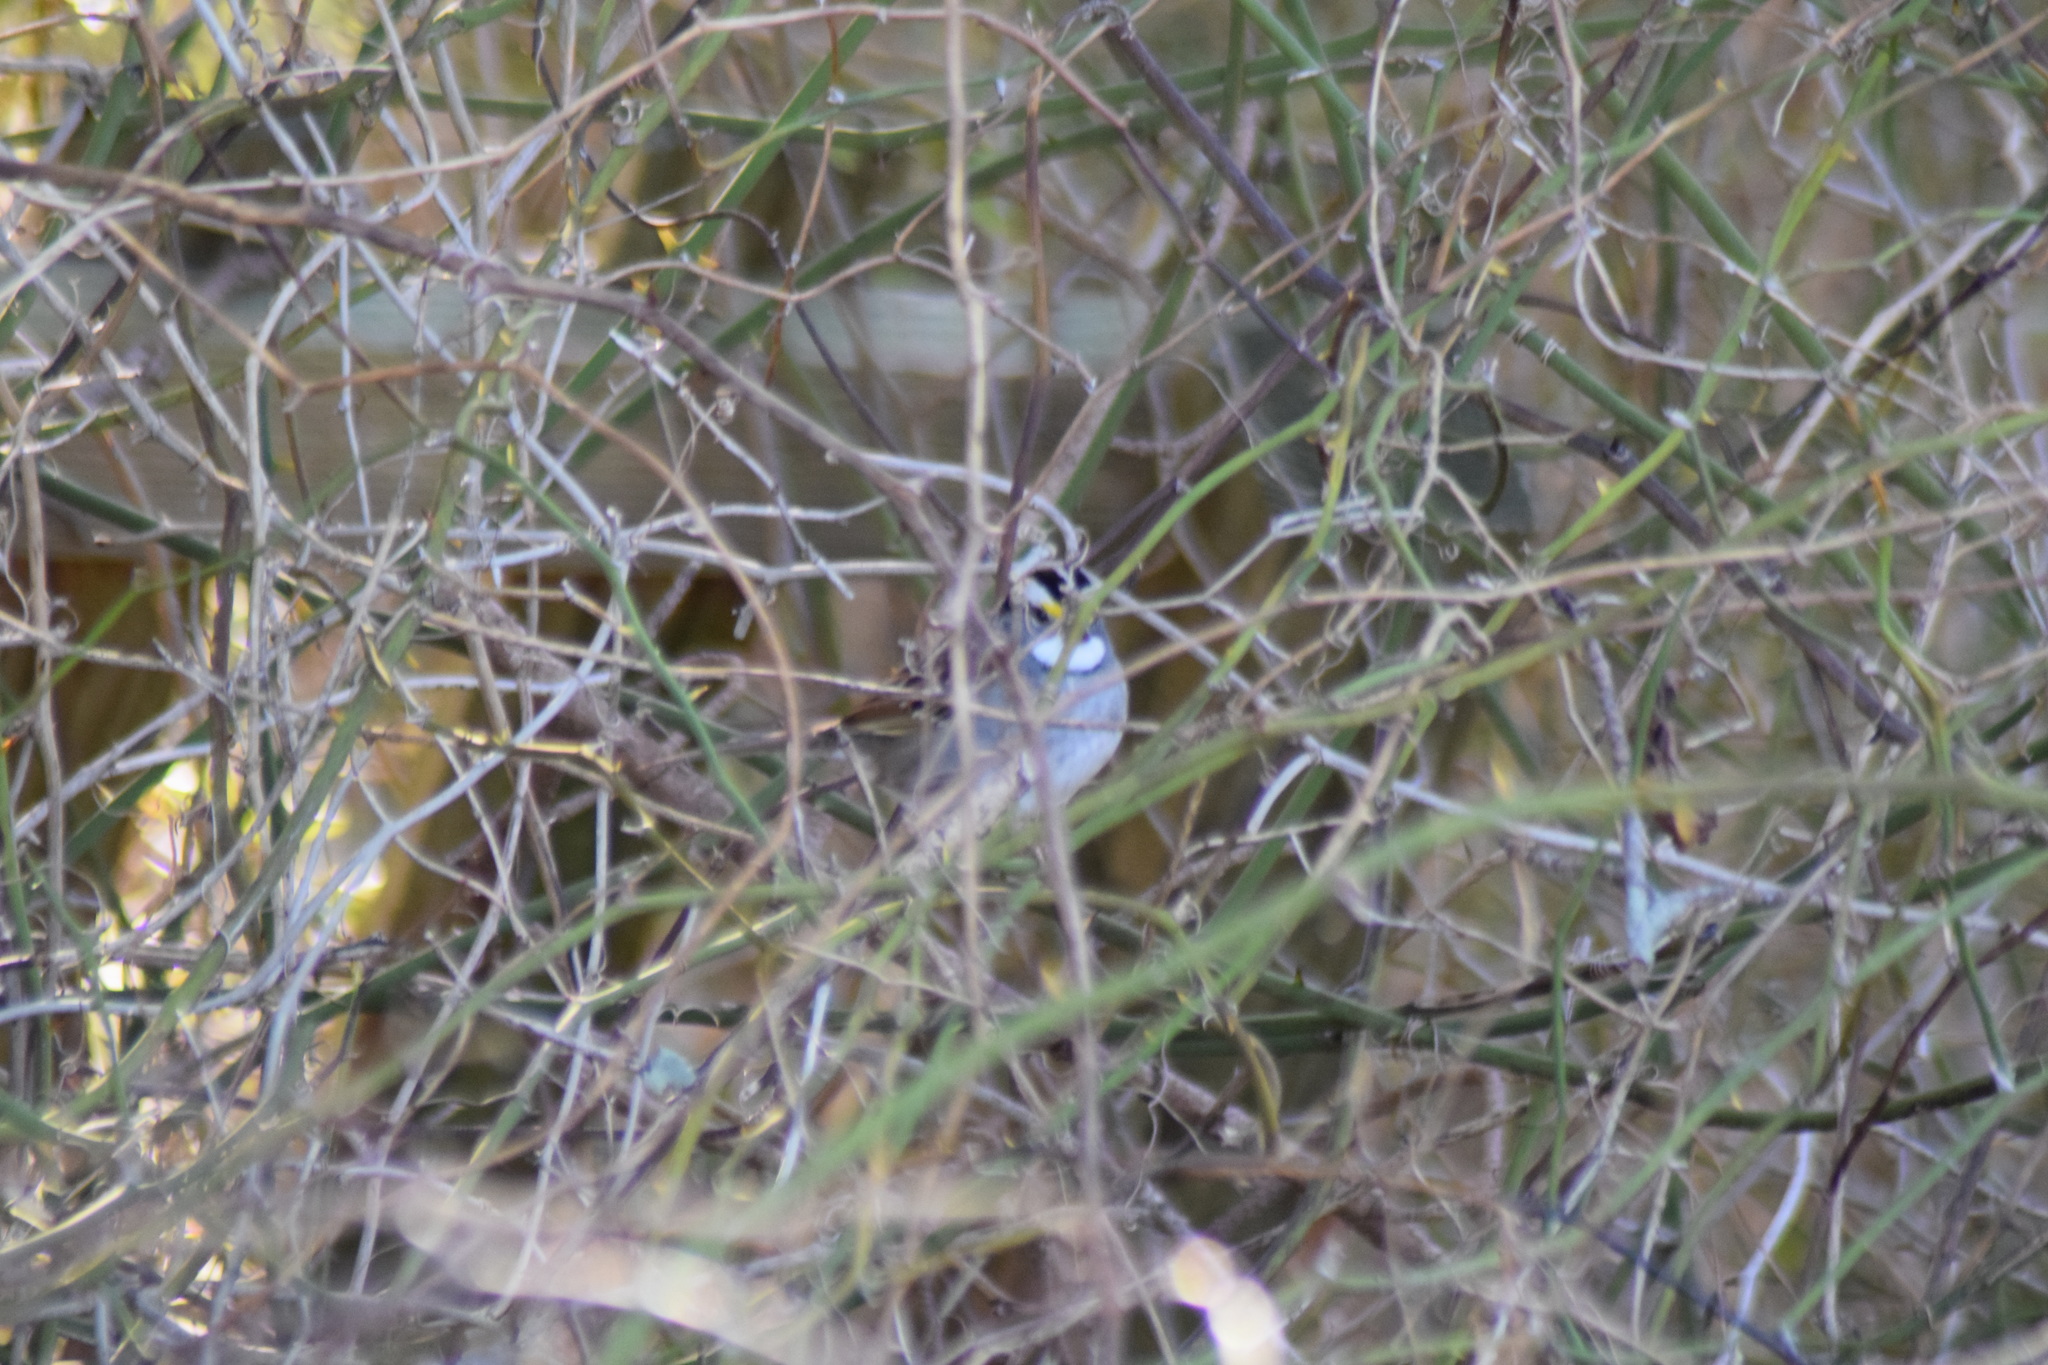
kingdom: Animalia
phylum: Chordata
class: Aves
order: Passeriformes
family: Passerellidae
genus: Zonotrichia
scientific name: Zonotrichia albicollis
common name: White-throated sparrow
